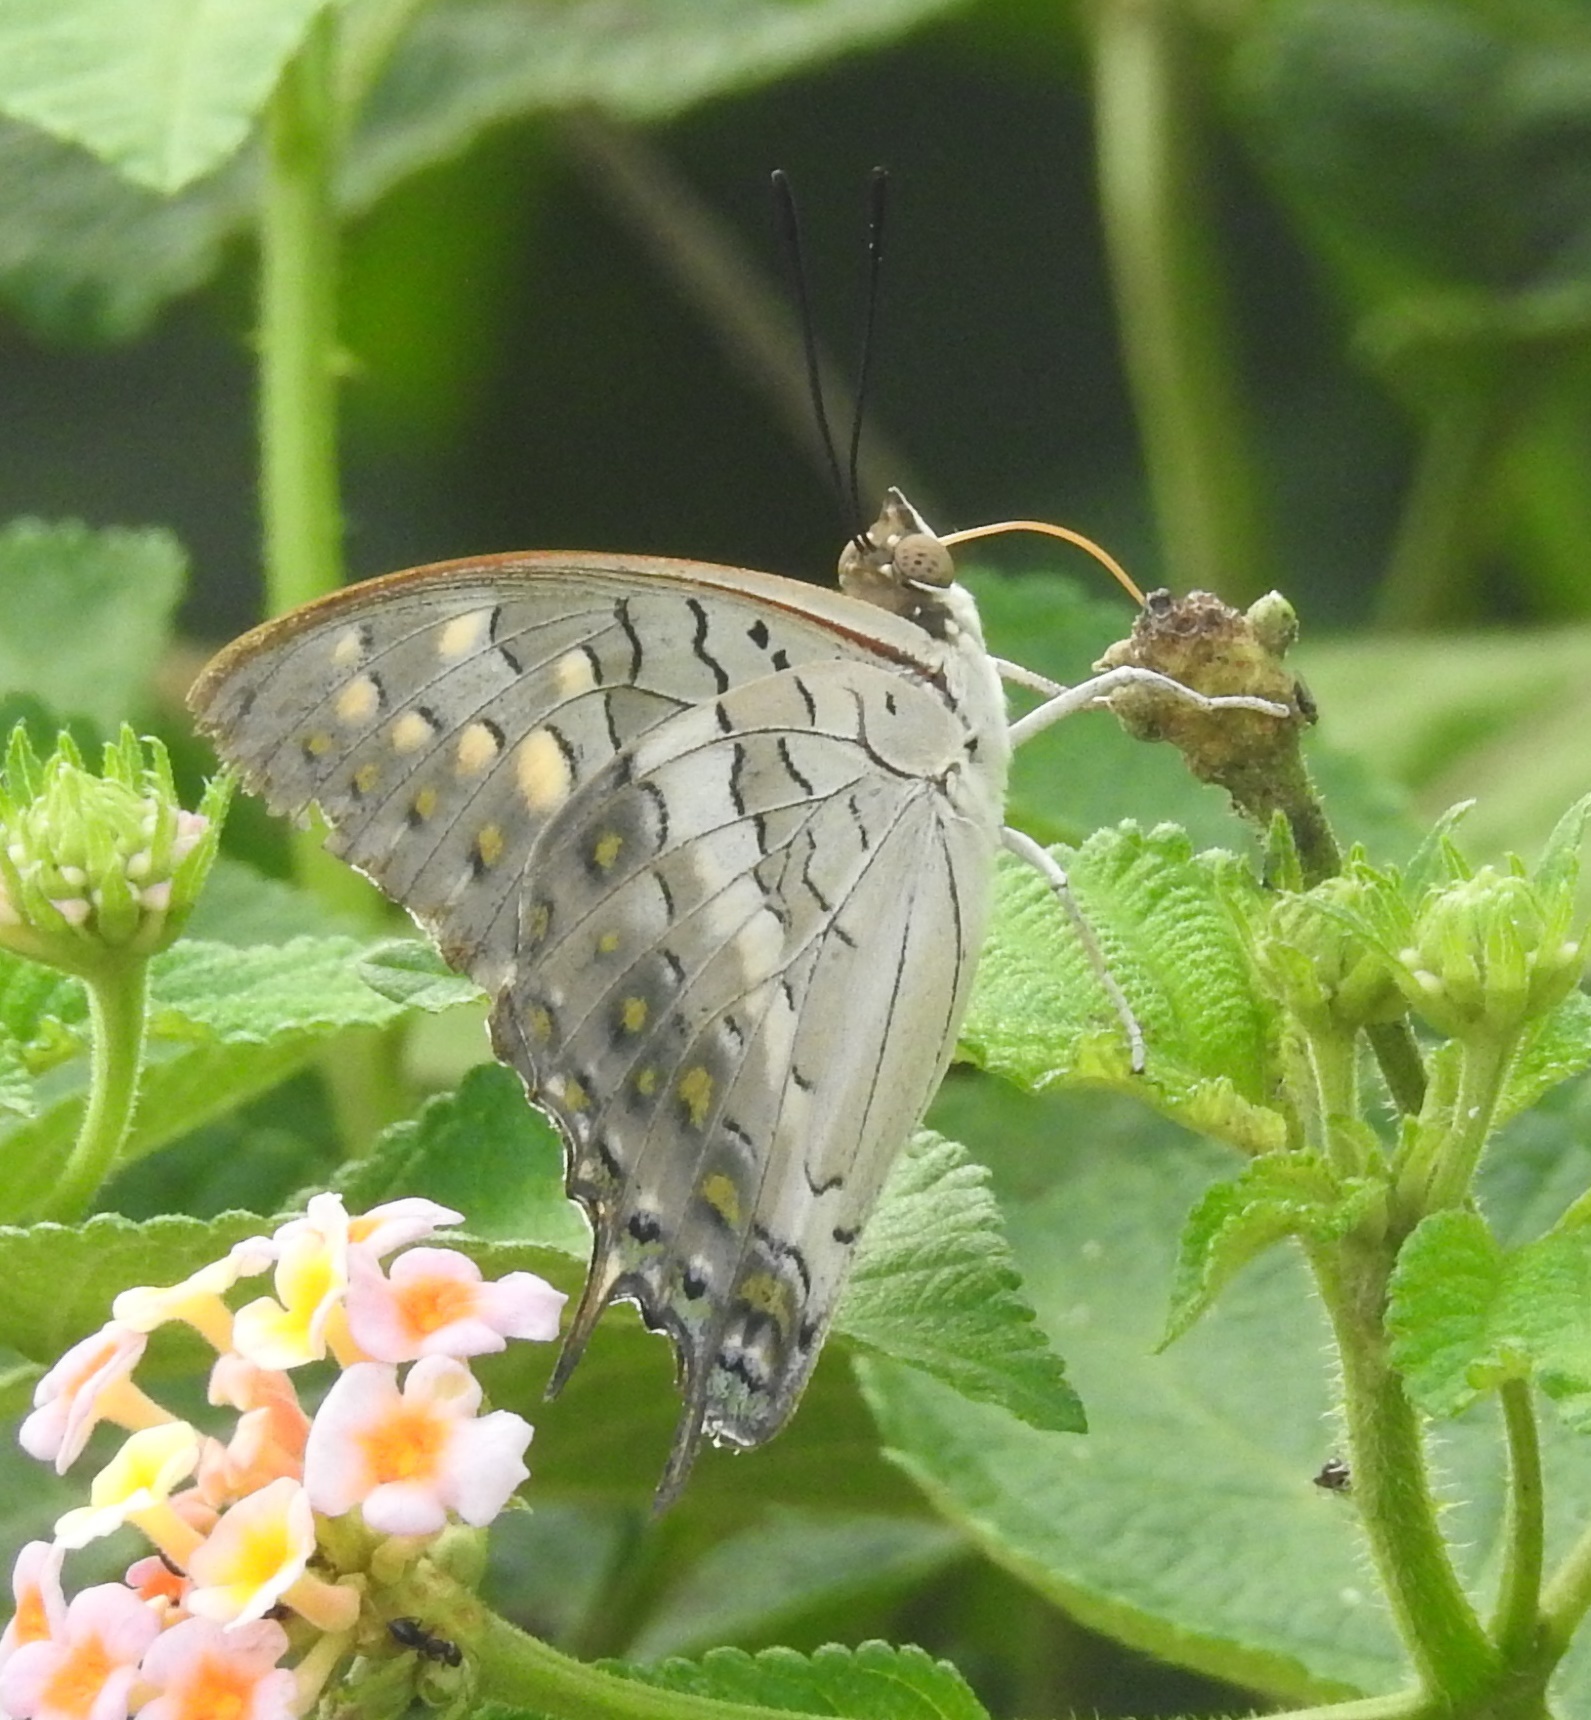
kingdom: Animalia
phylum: Arthropoda
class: Insecta
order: Lepidoptera
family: Nymphalidae
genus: Charaxes
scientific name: Charaxes solon
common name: Black rajah
